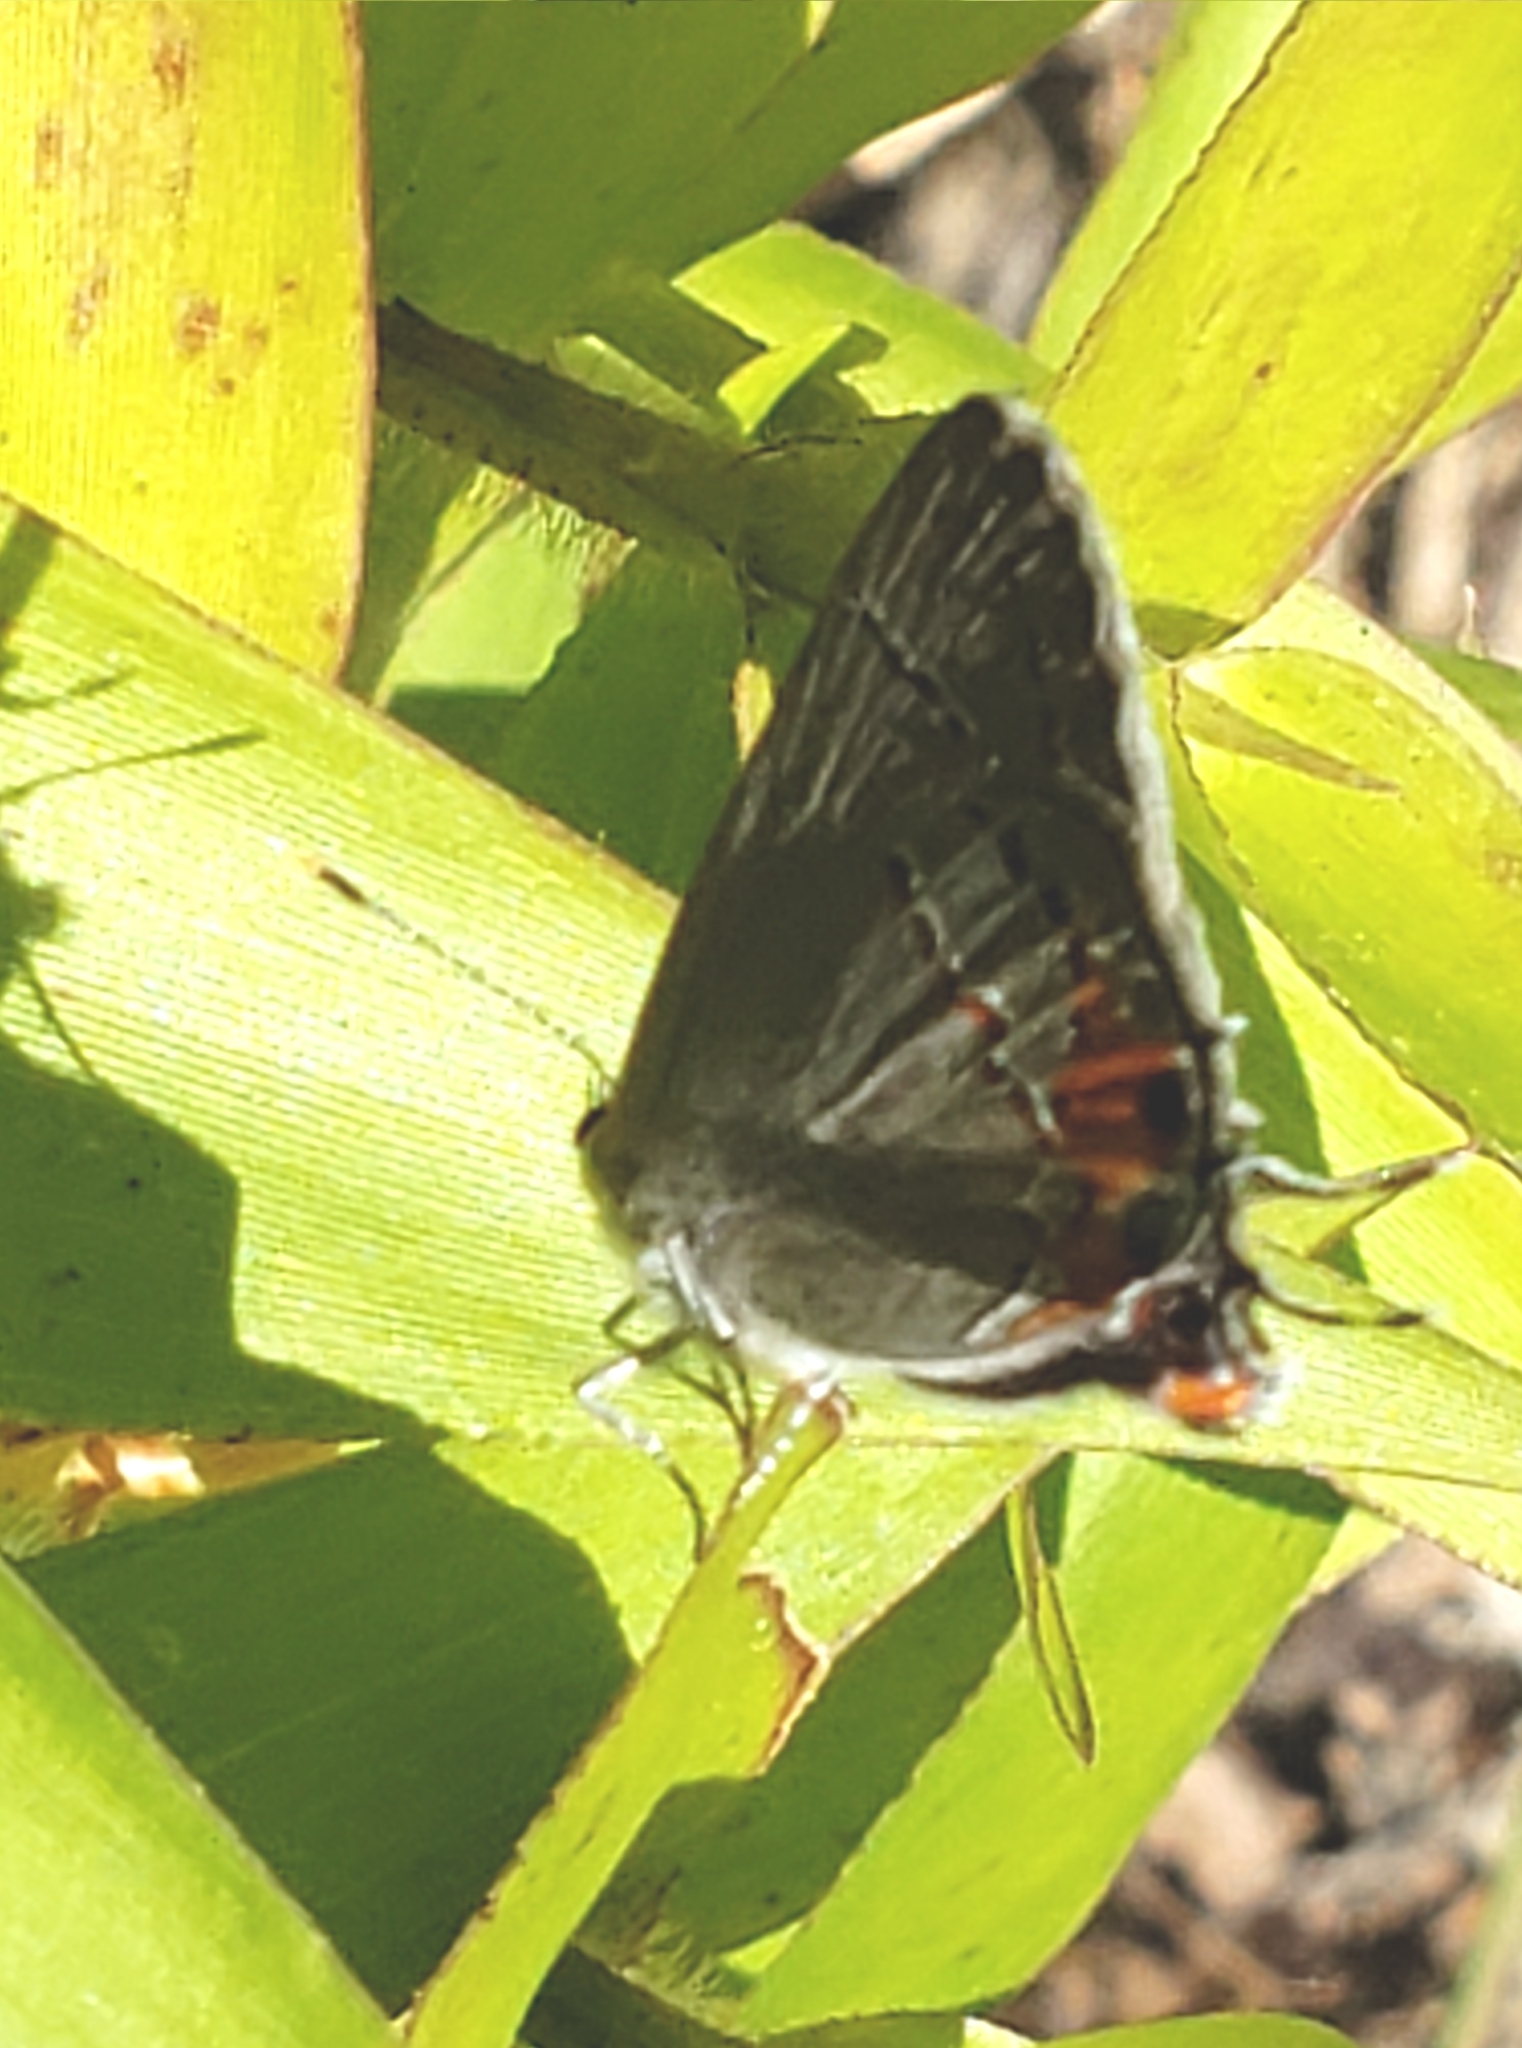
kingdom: Animalia
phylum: Arthropoda
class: Insecta
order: Lepidoptera
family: Lycaenidae
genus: Strymon
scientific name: Strymon melinus
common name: Gray hairstreak
